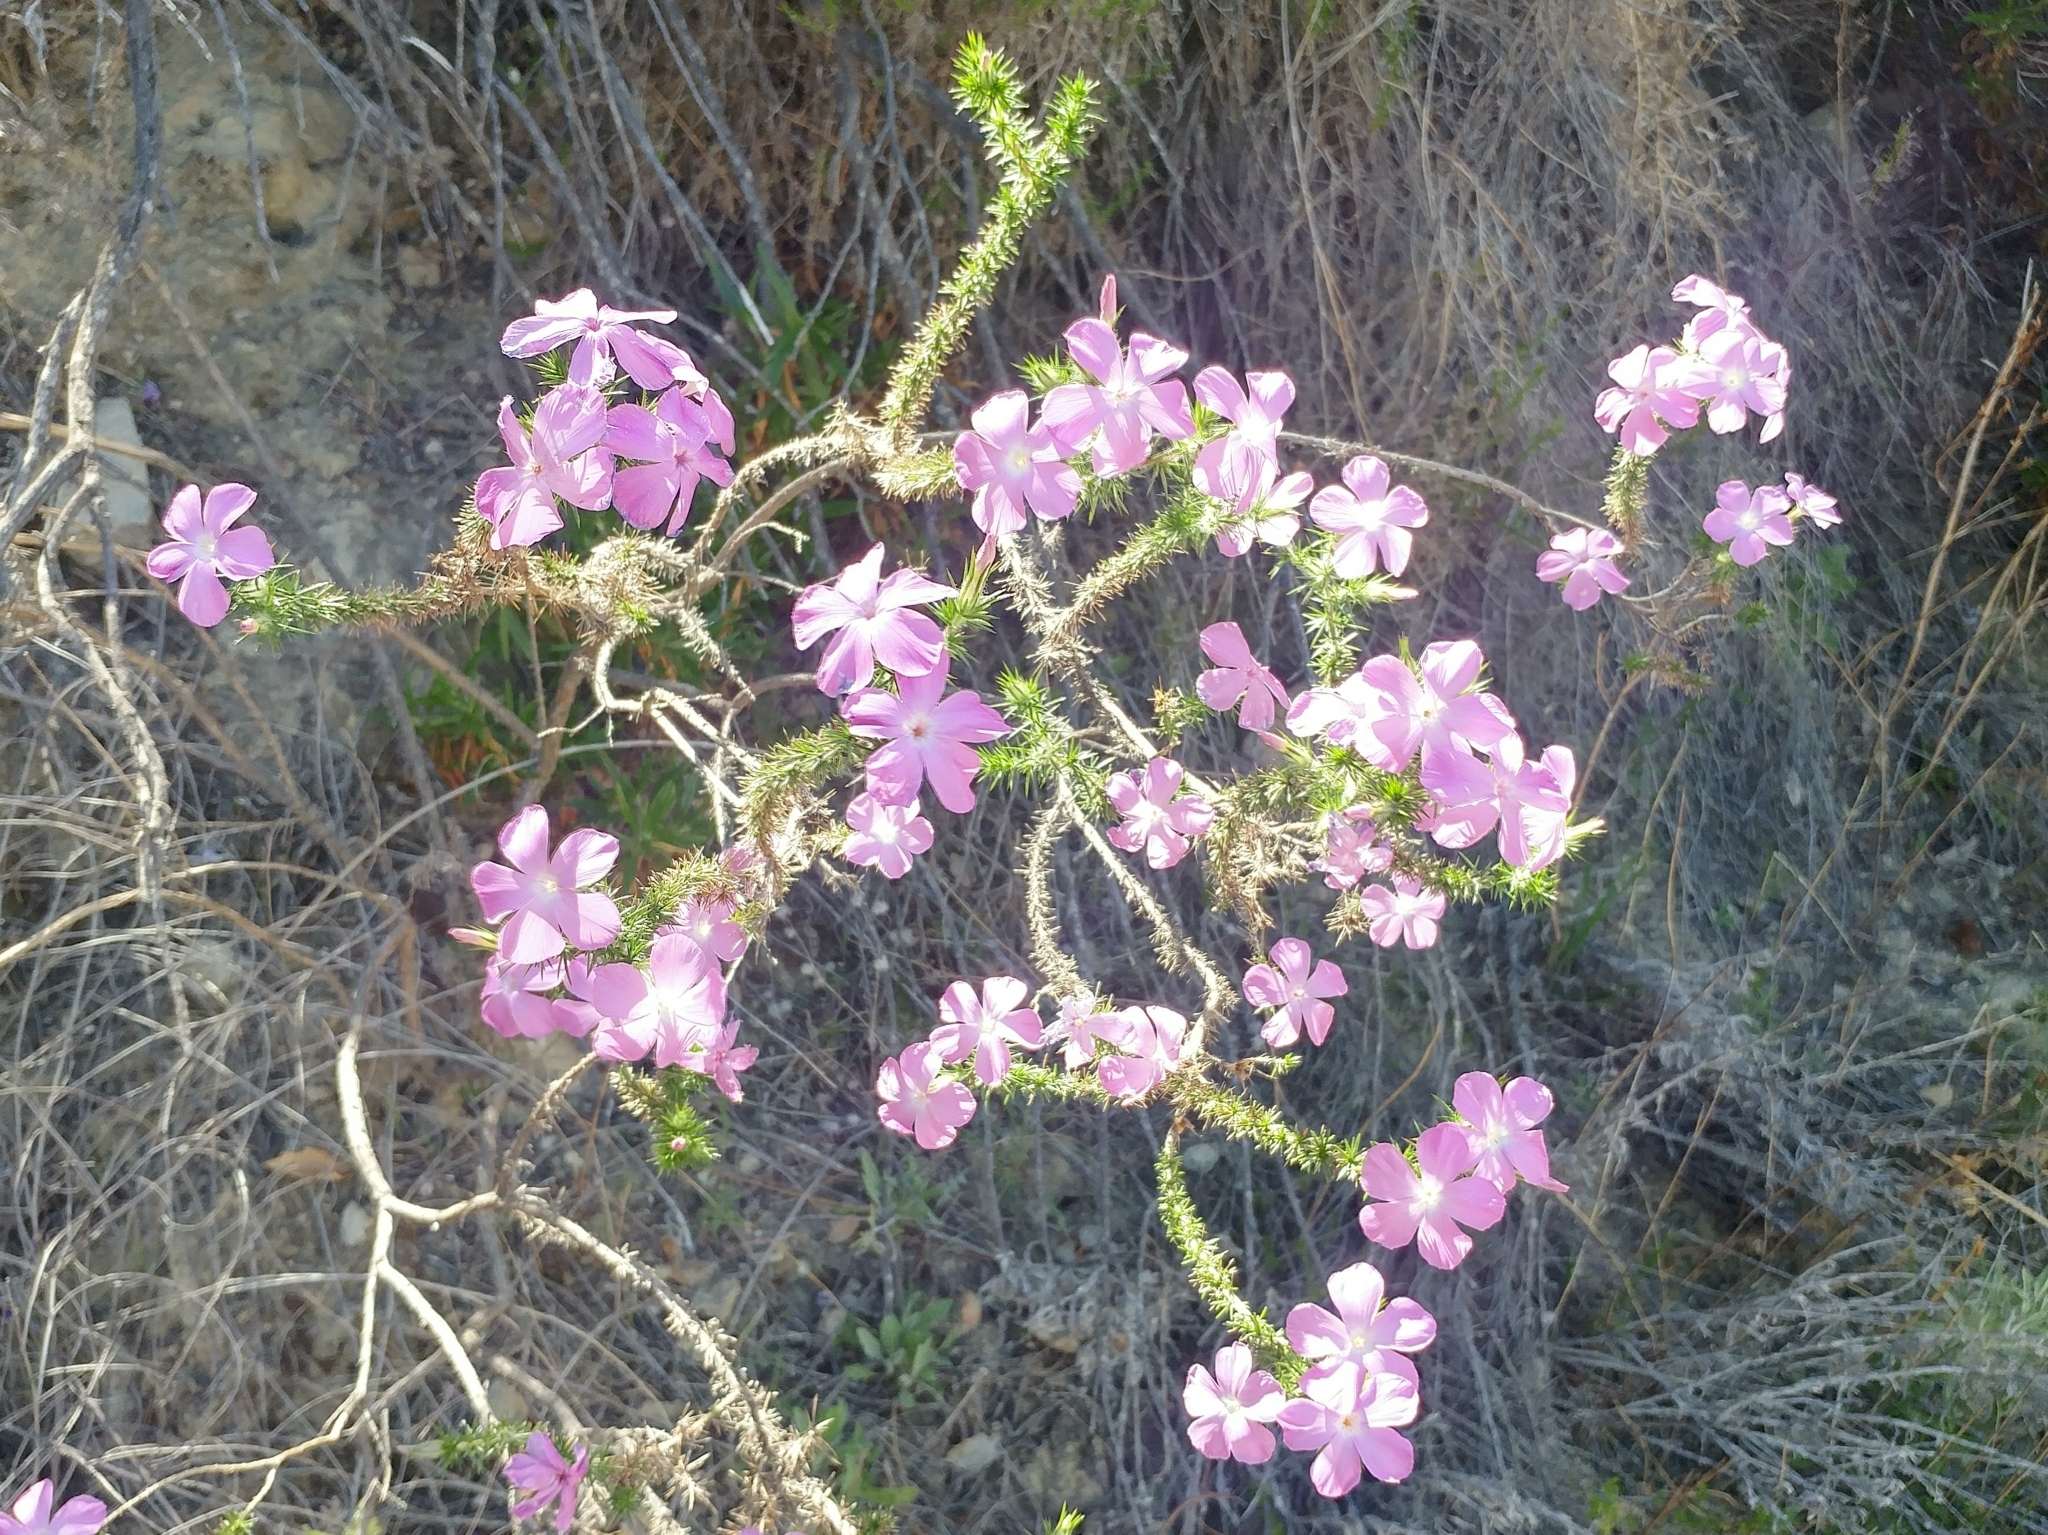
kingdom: Plantae
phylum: Tracheophyta
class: Magnoliopsida
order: Ericales
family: Polemoniaceae
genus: Linanthus
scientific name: Linanthus californicus
